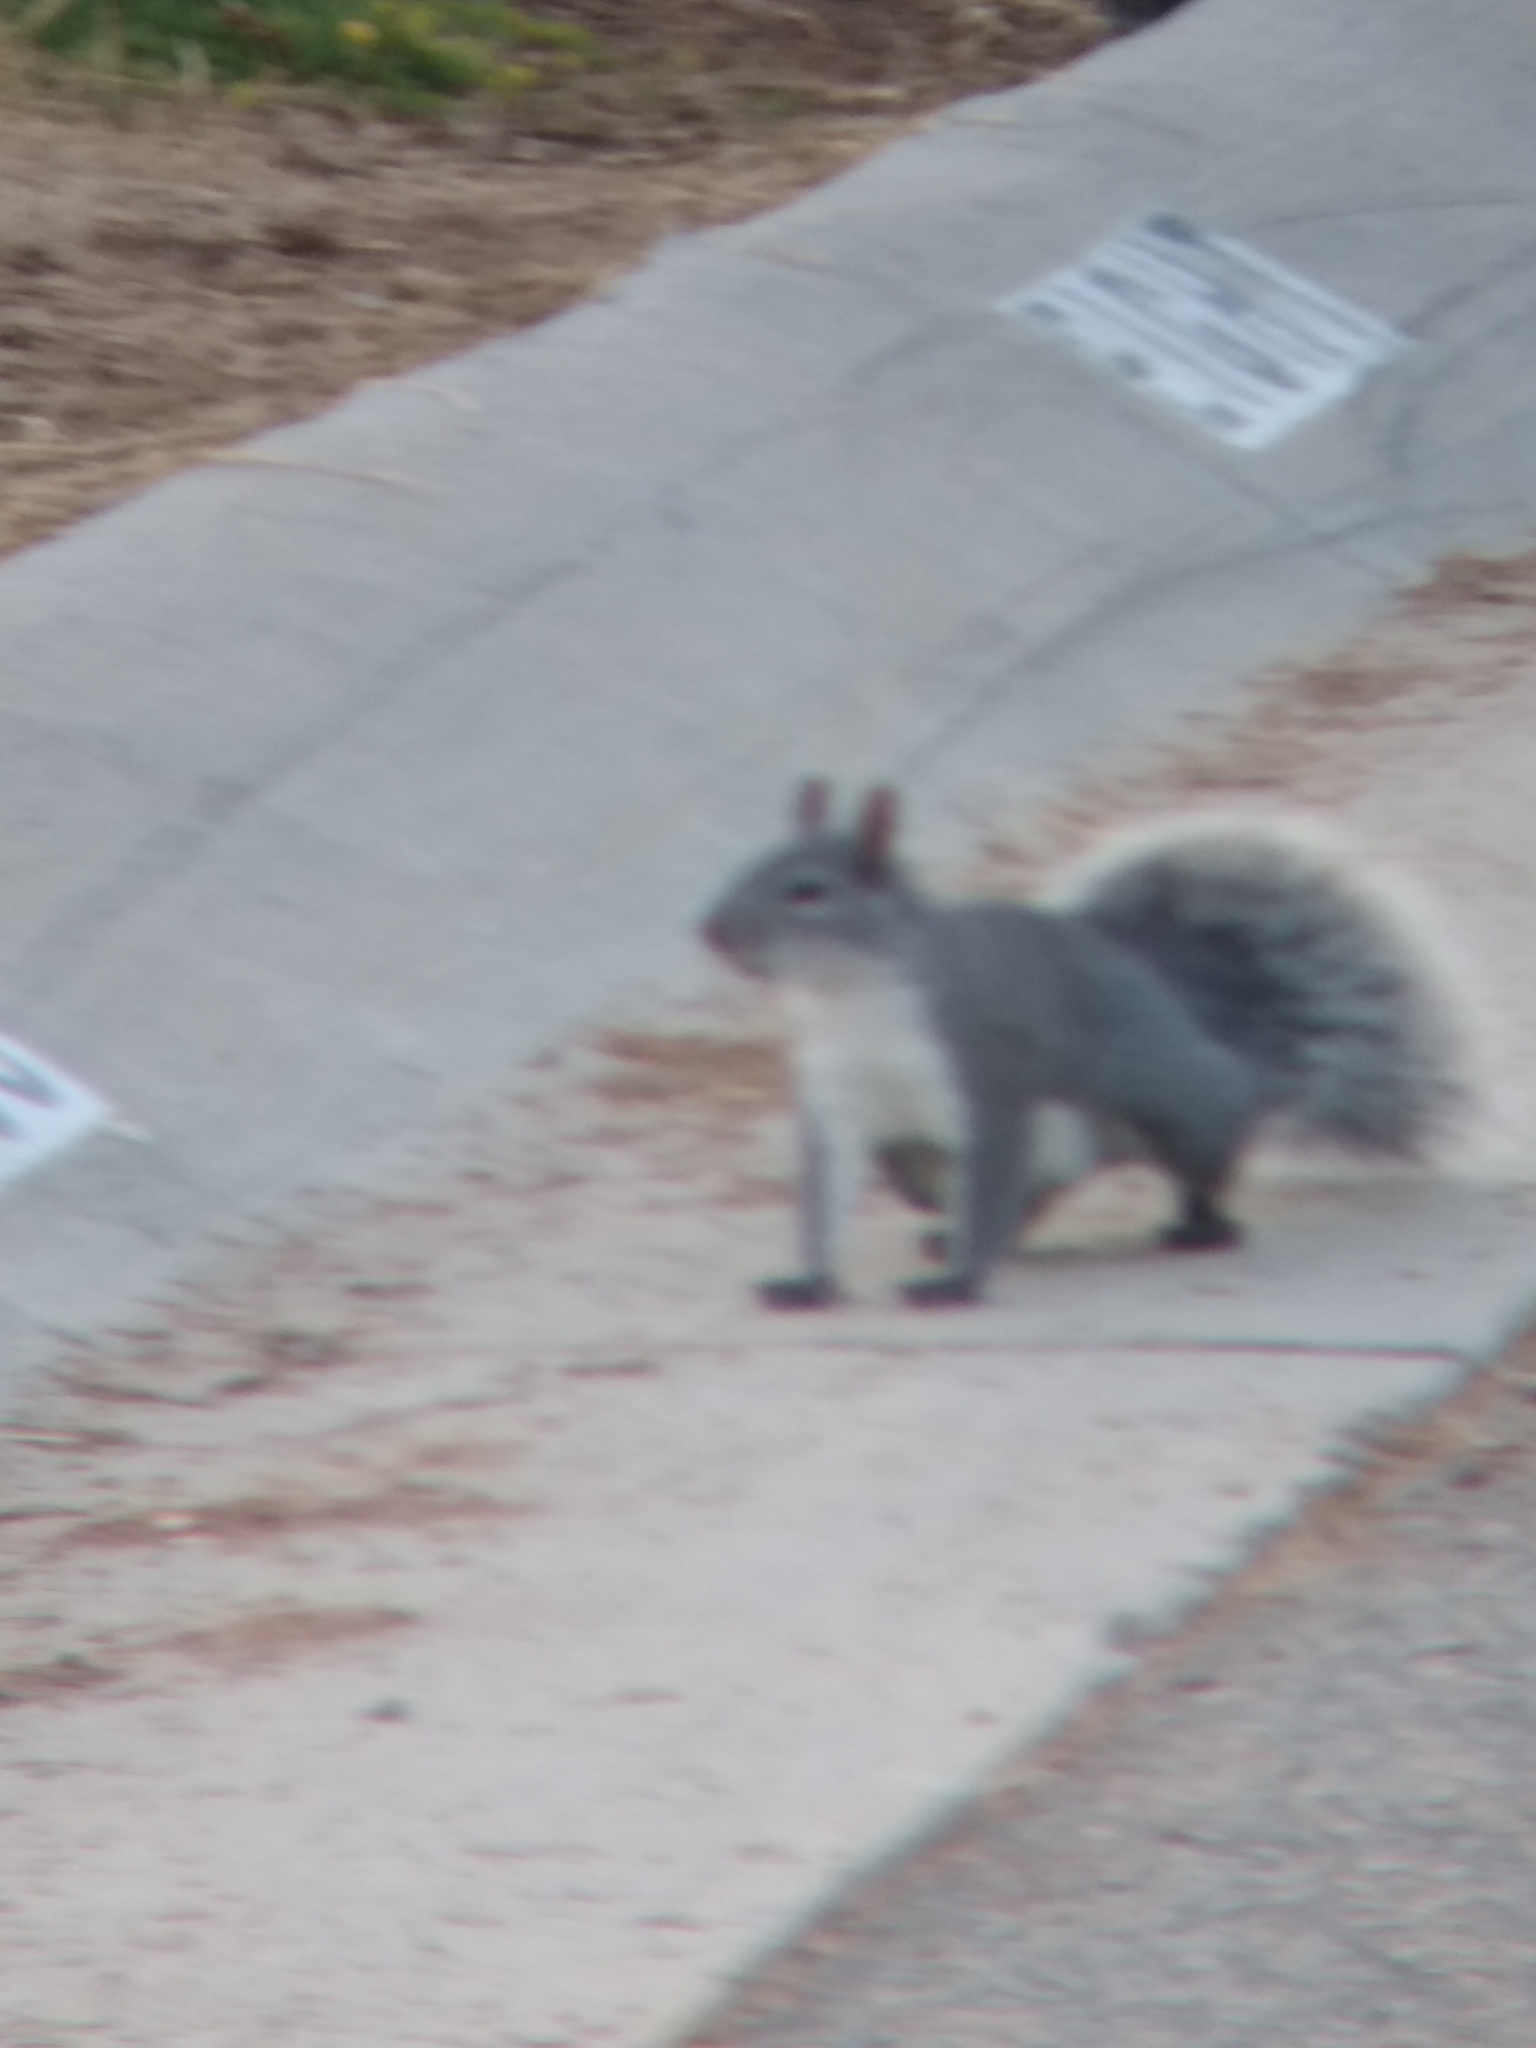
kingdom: Animalia
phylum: Chordata
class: Mammalia
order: Rodentia
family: Sciuridae
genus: Sciurus
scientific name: Sciurus griseus
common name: Western gray squirrel
